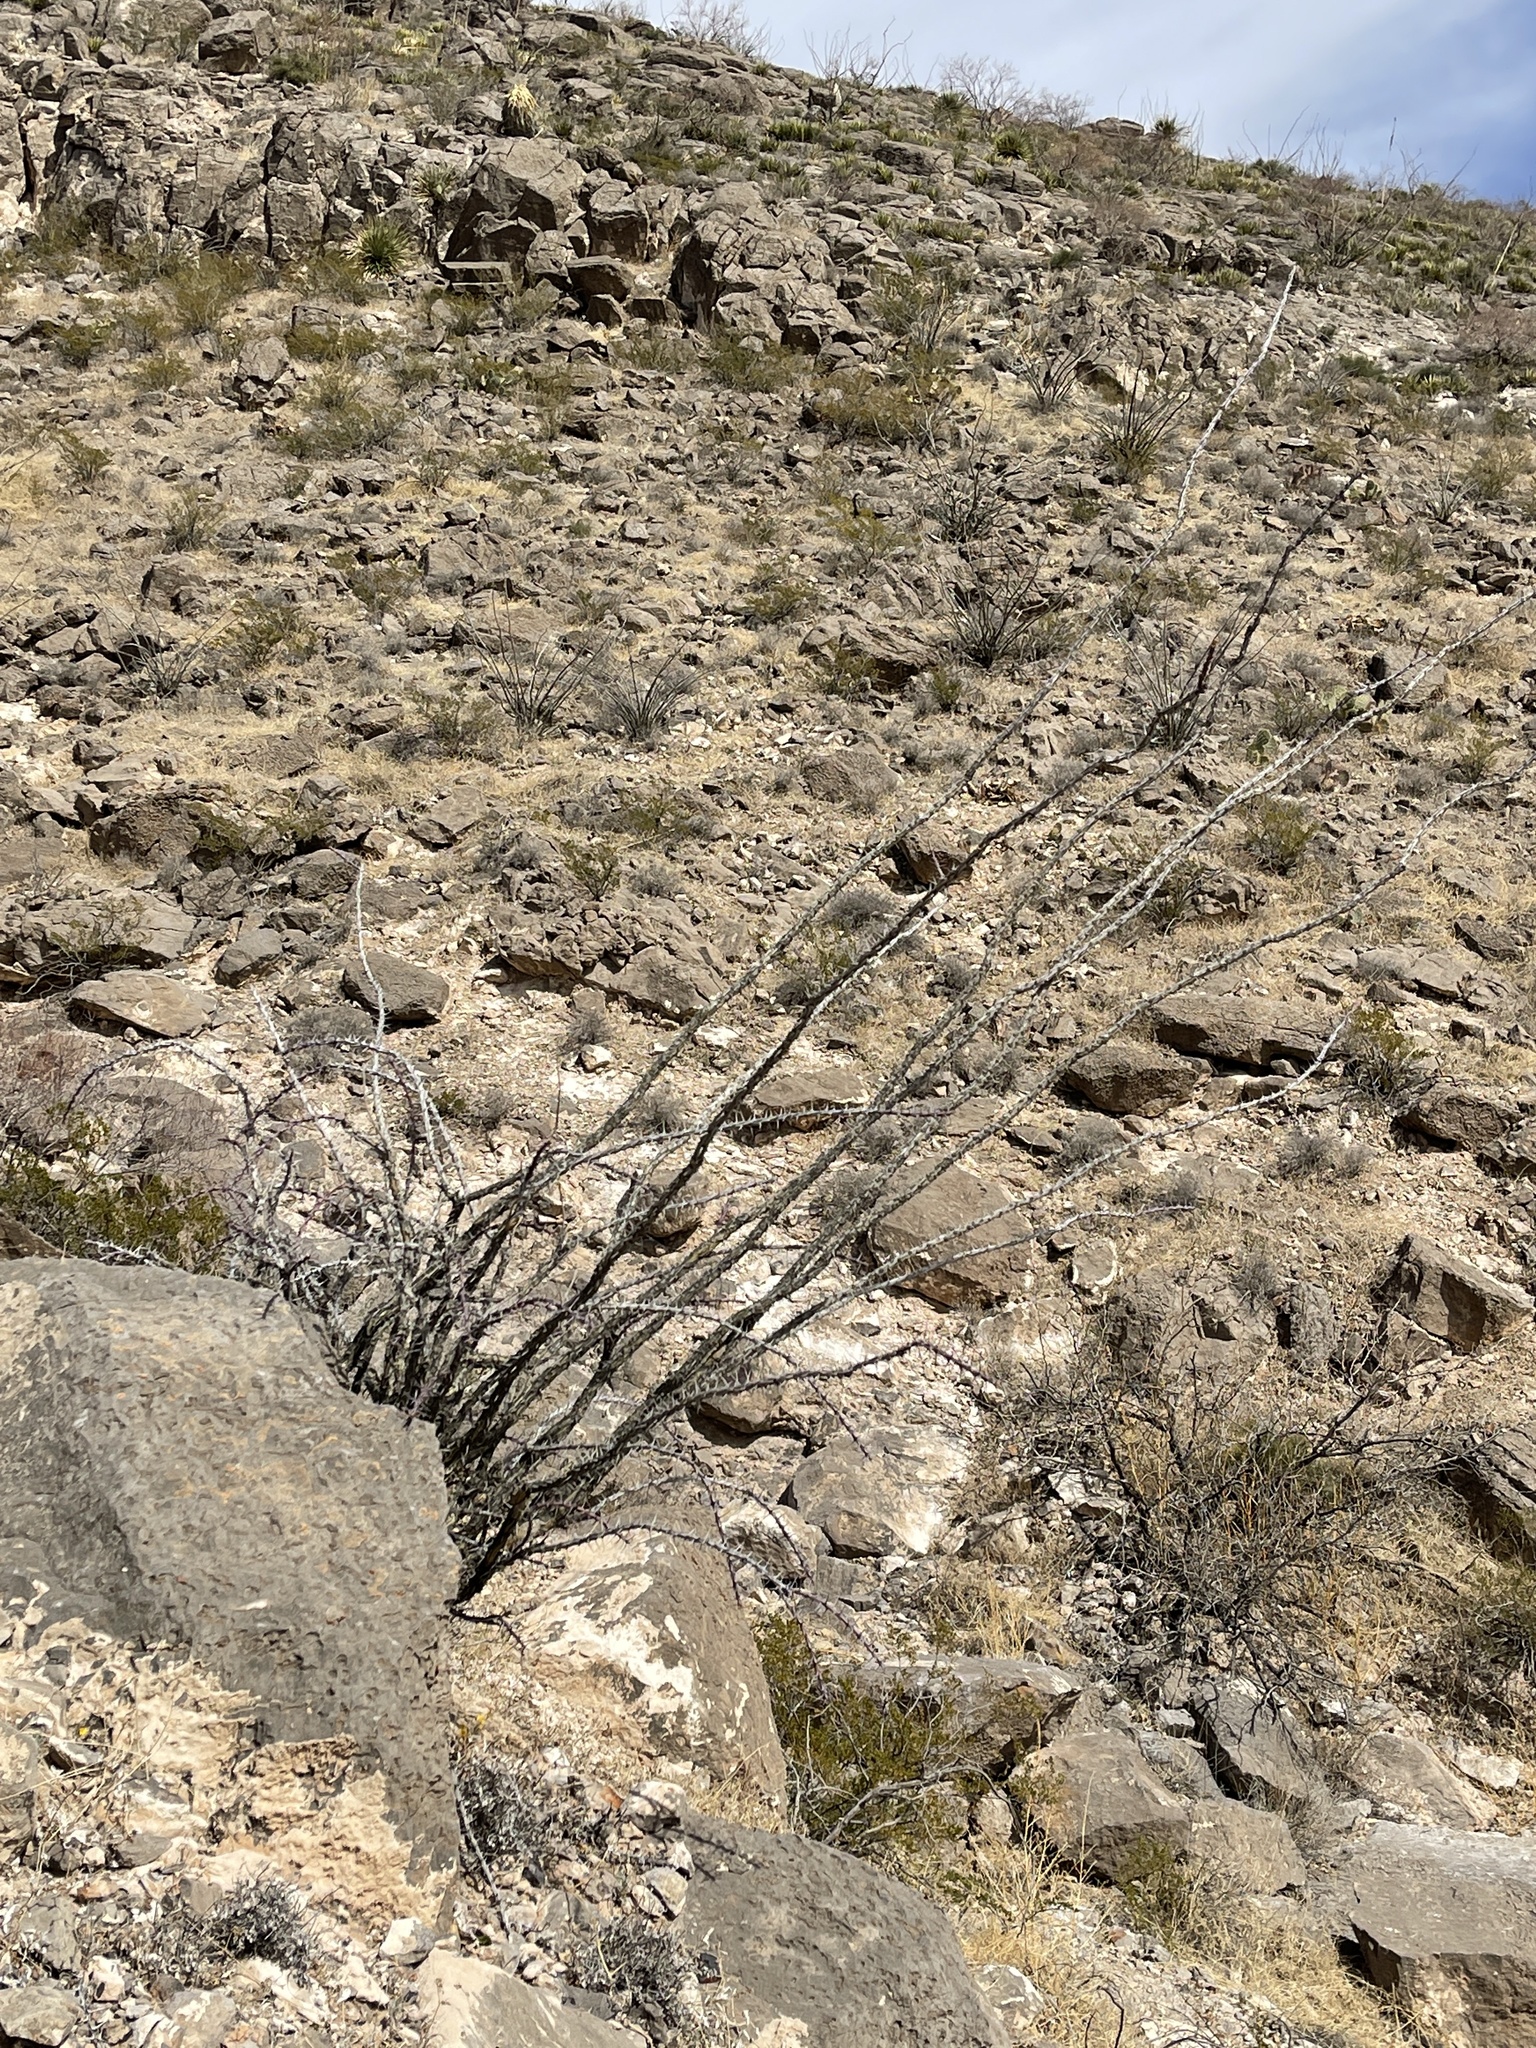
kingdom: Plantae
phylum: Tracheophyta
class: Magnoliopsida
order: Ericales
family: Fouquieriaceae
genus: Fouquieria
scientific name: Fouquieria splendens
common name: Vine-cactus
